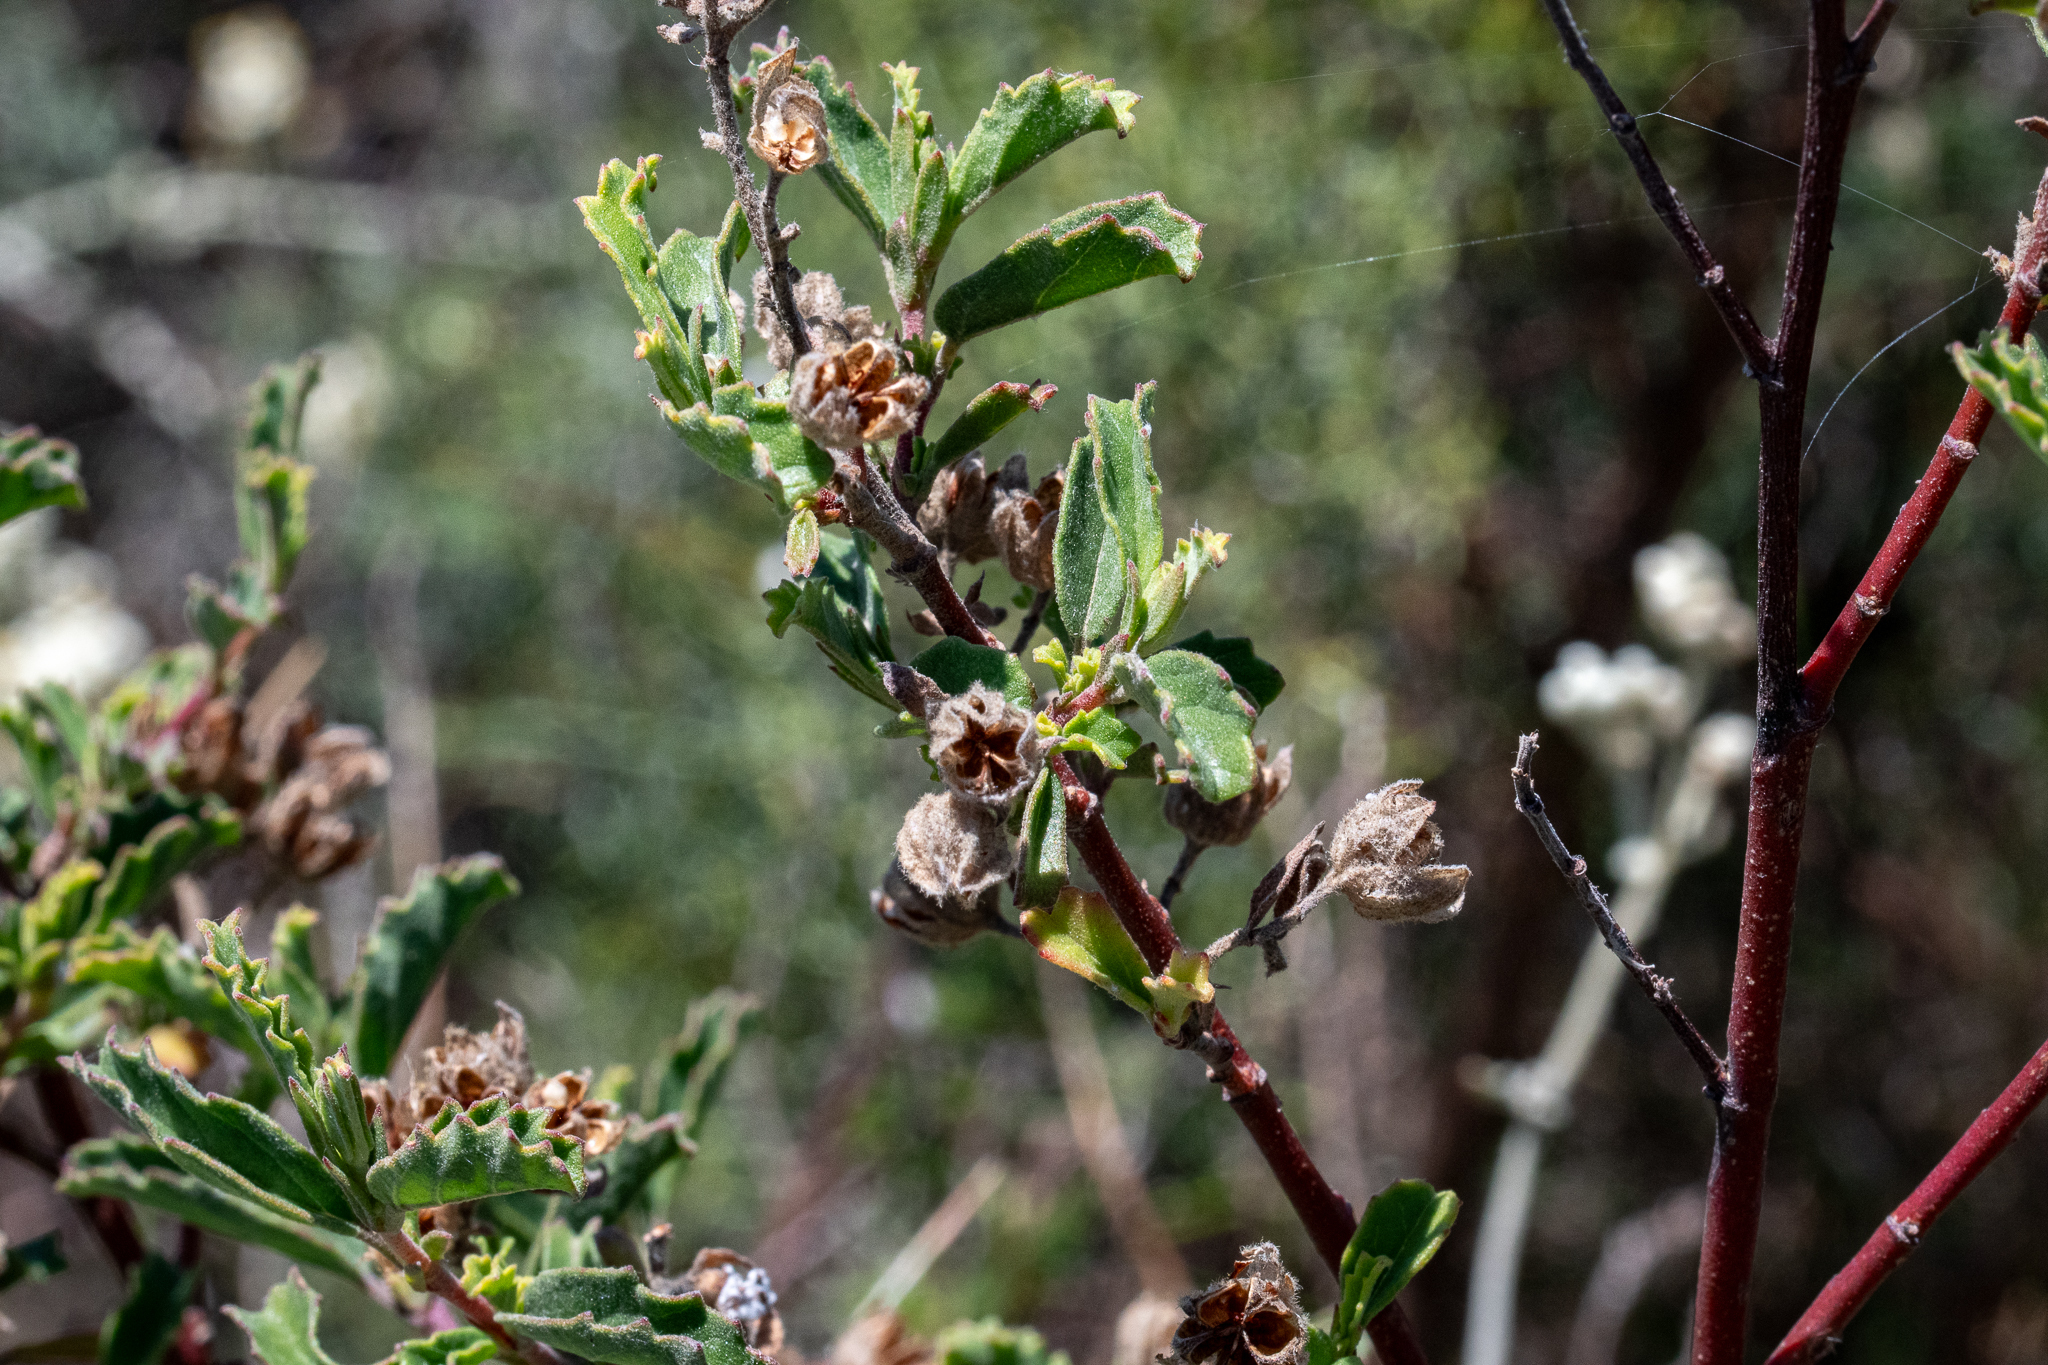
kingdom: Plantae
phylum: Tracheophyta
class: Magnoliopsida
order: Malvales
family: Malvaceae
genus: Hermannia
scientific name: Hermannia hyssopifolia
